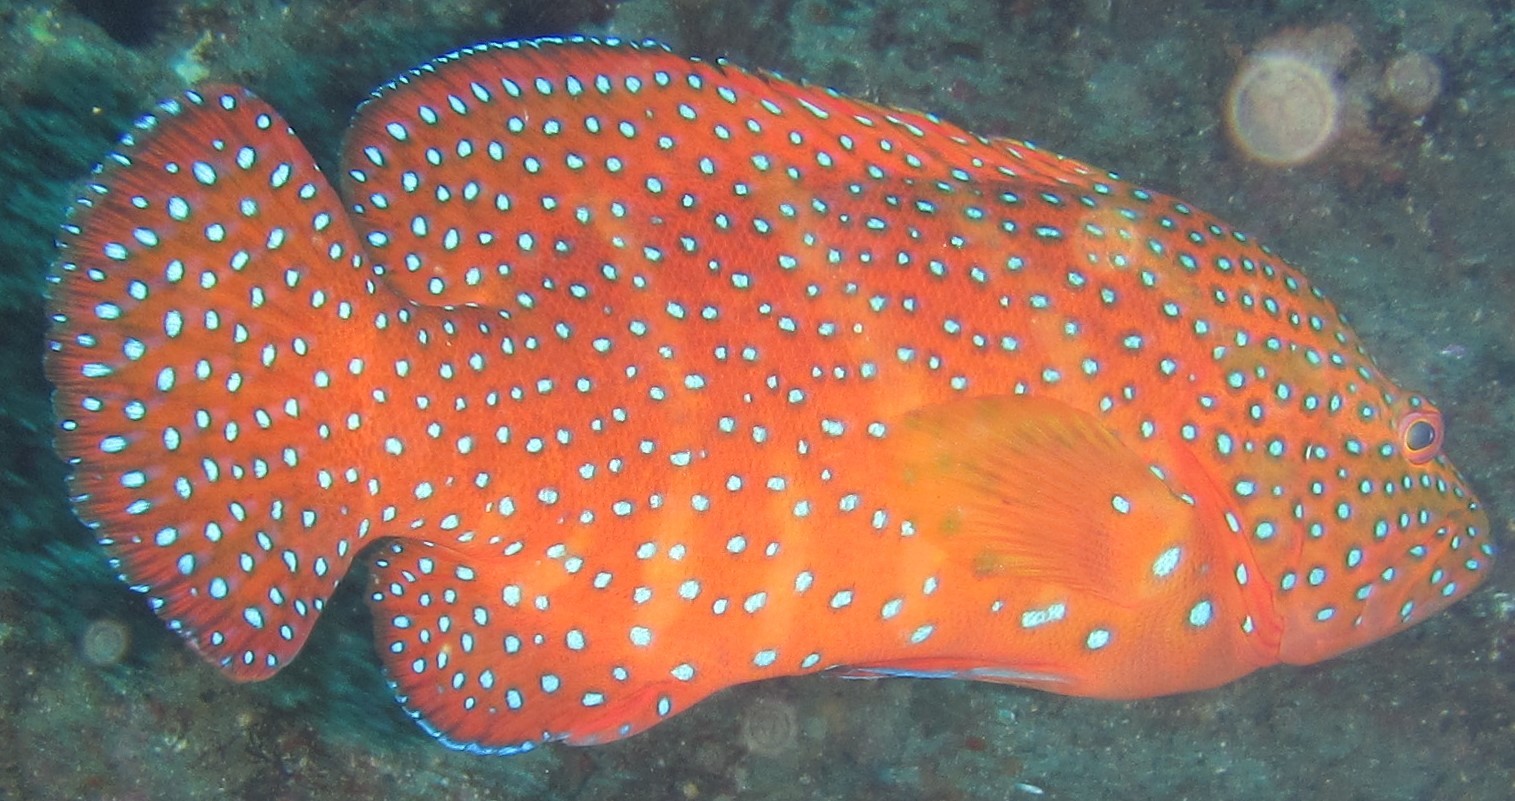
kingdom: Animalia
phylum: Chordata
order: Perciformes
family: Serranidae
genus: Cephalopholis
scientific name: Cephalopholis miniata
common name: Coral hind
